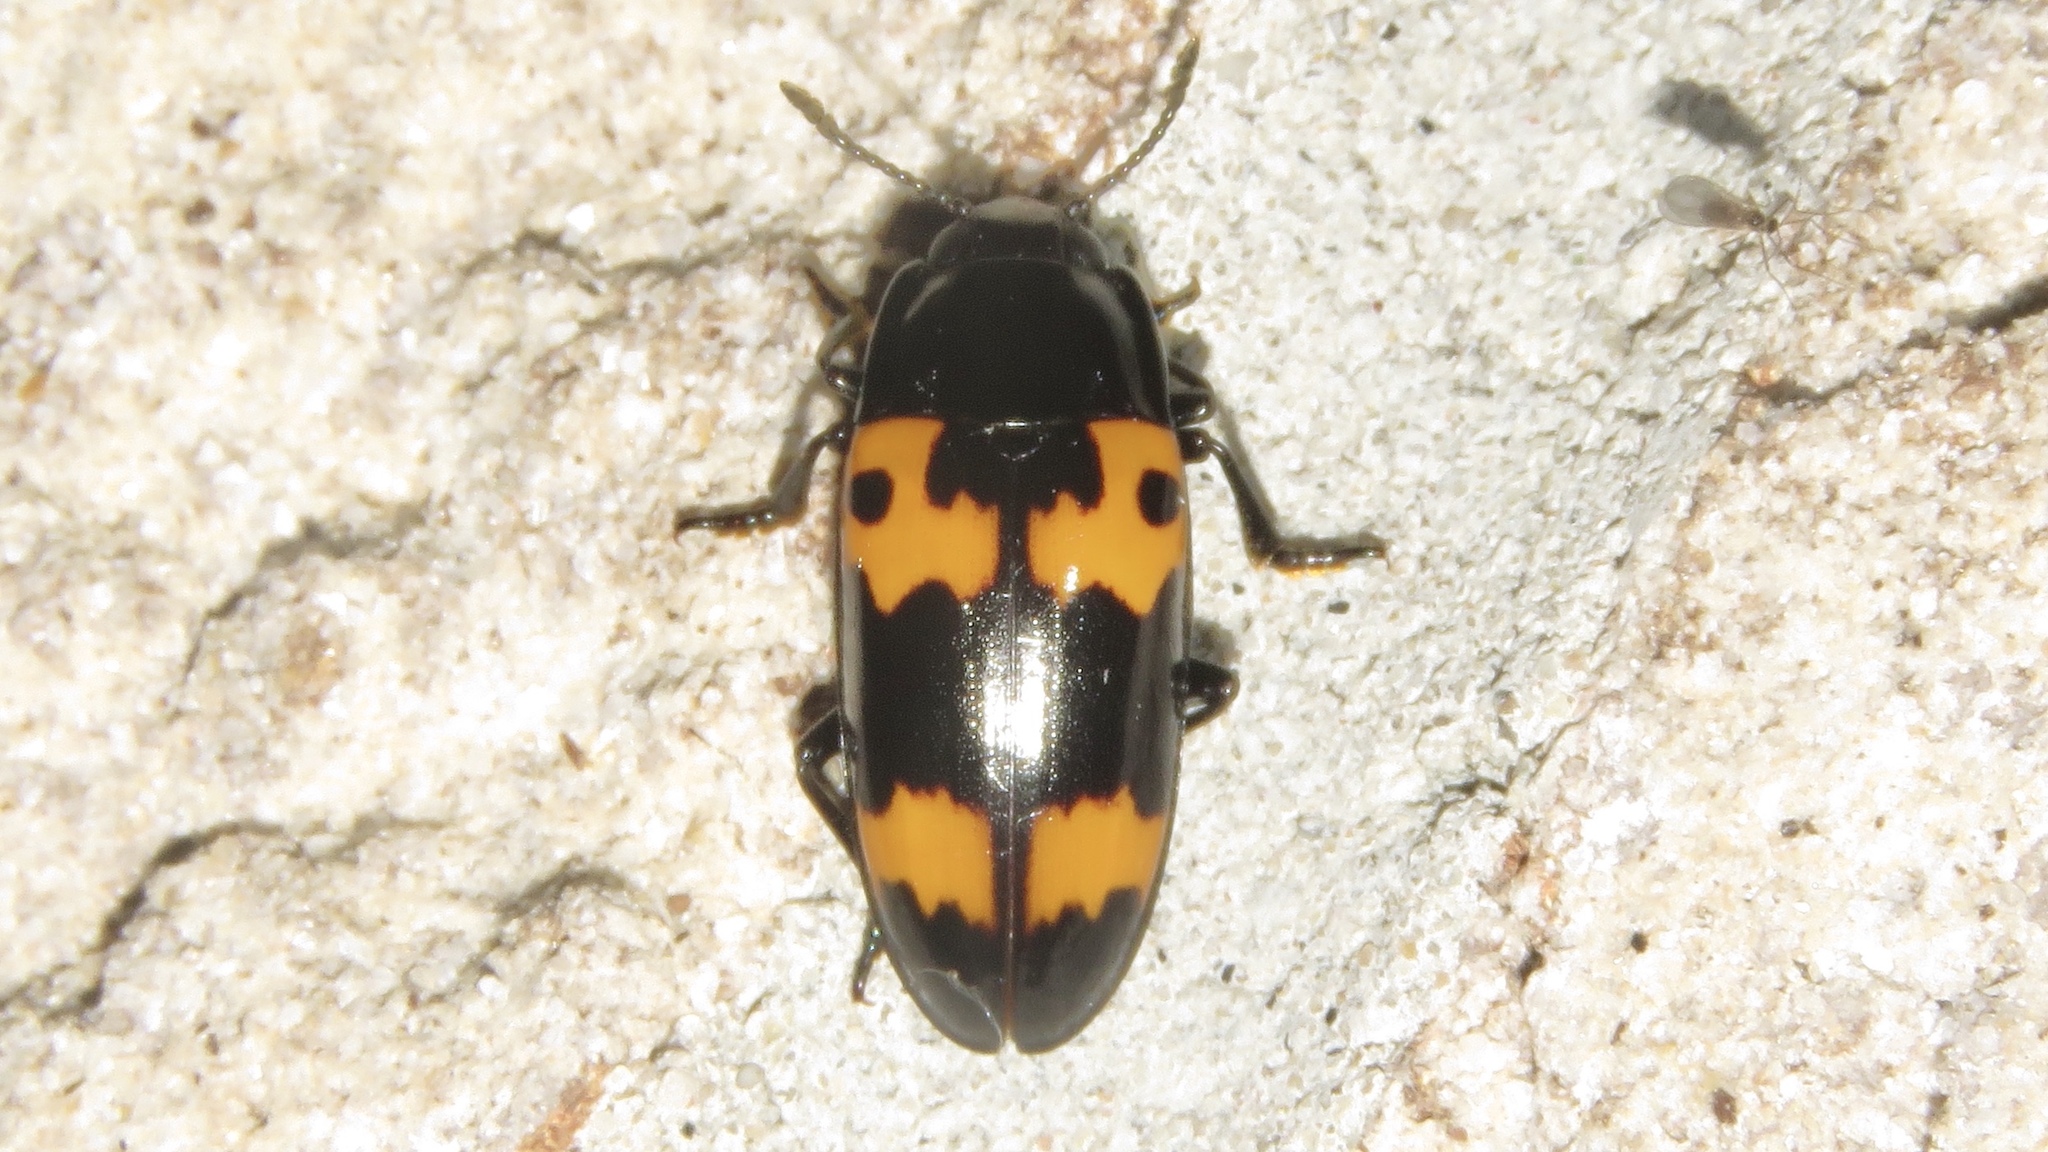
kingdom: Animalia
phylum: Arthropoda
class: Insecta
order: Coleoptera
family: Erotylidae
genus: Megalodacne
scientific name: Megalodacne fasciata
